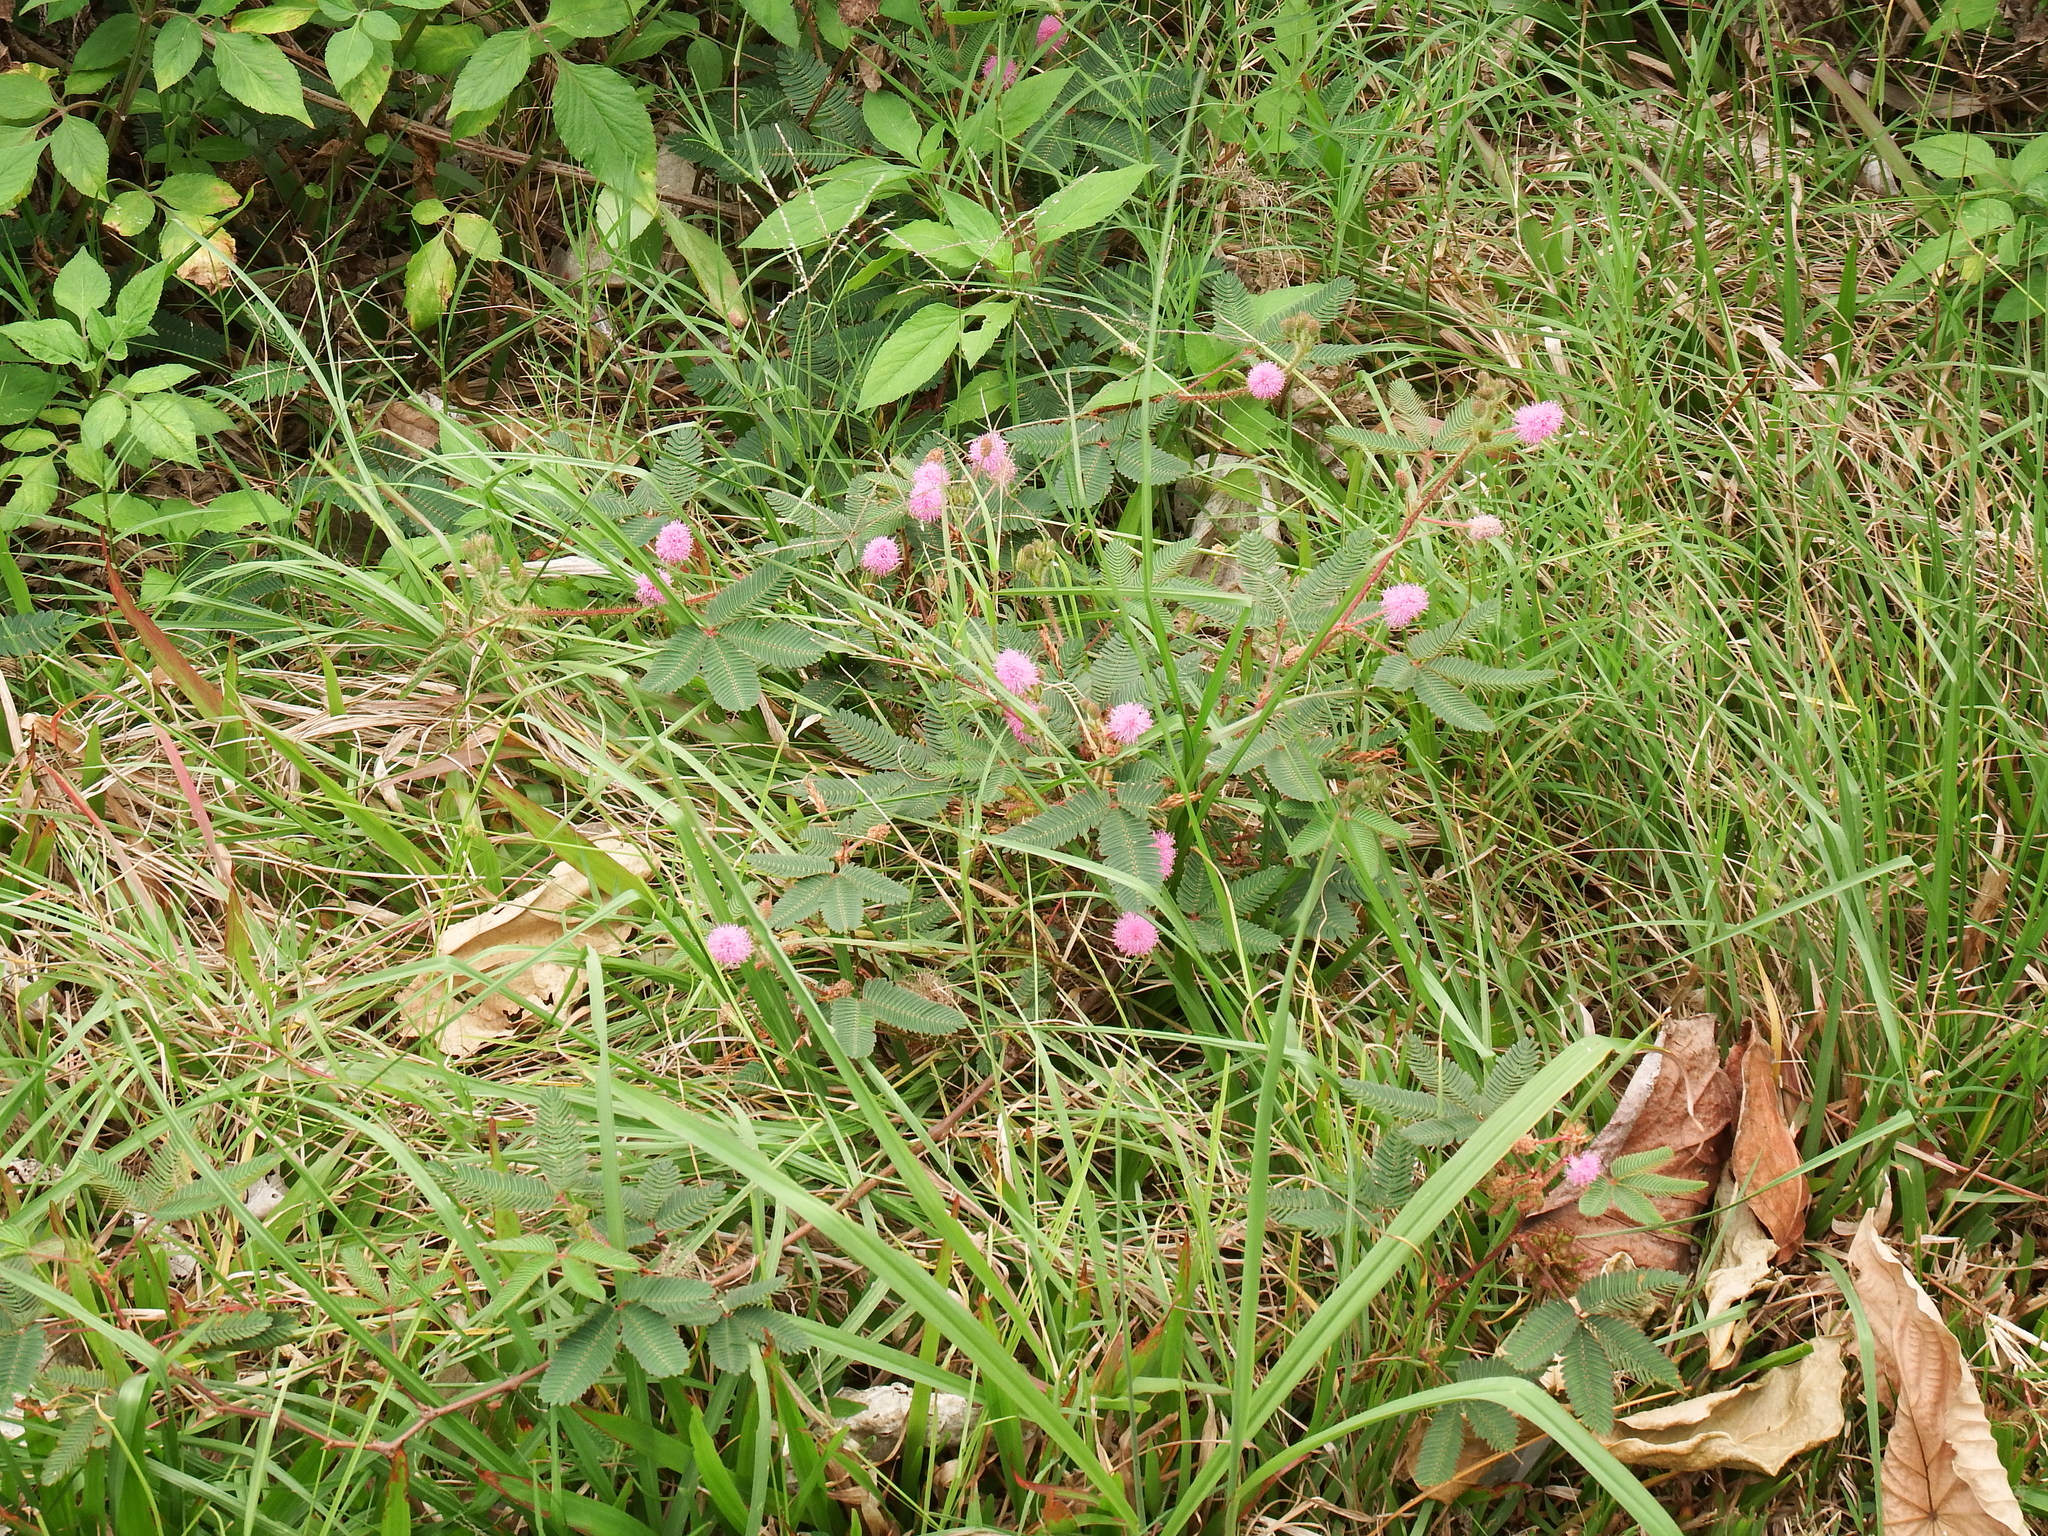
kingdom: Plantae
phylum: Tracheophyta
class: Magnoliopsida
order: Fabales
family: Fabaceae
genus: Mimosa
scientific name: Mimosa pudica
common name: Sensitive plant
